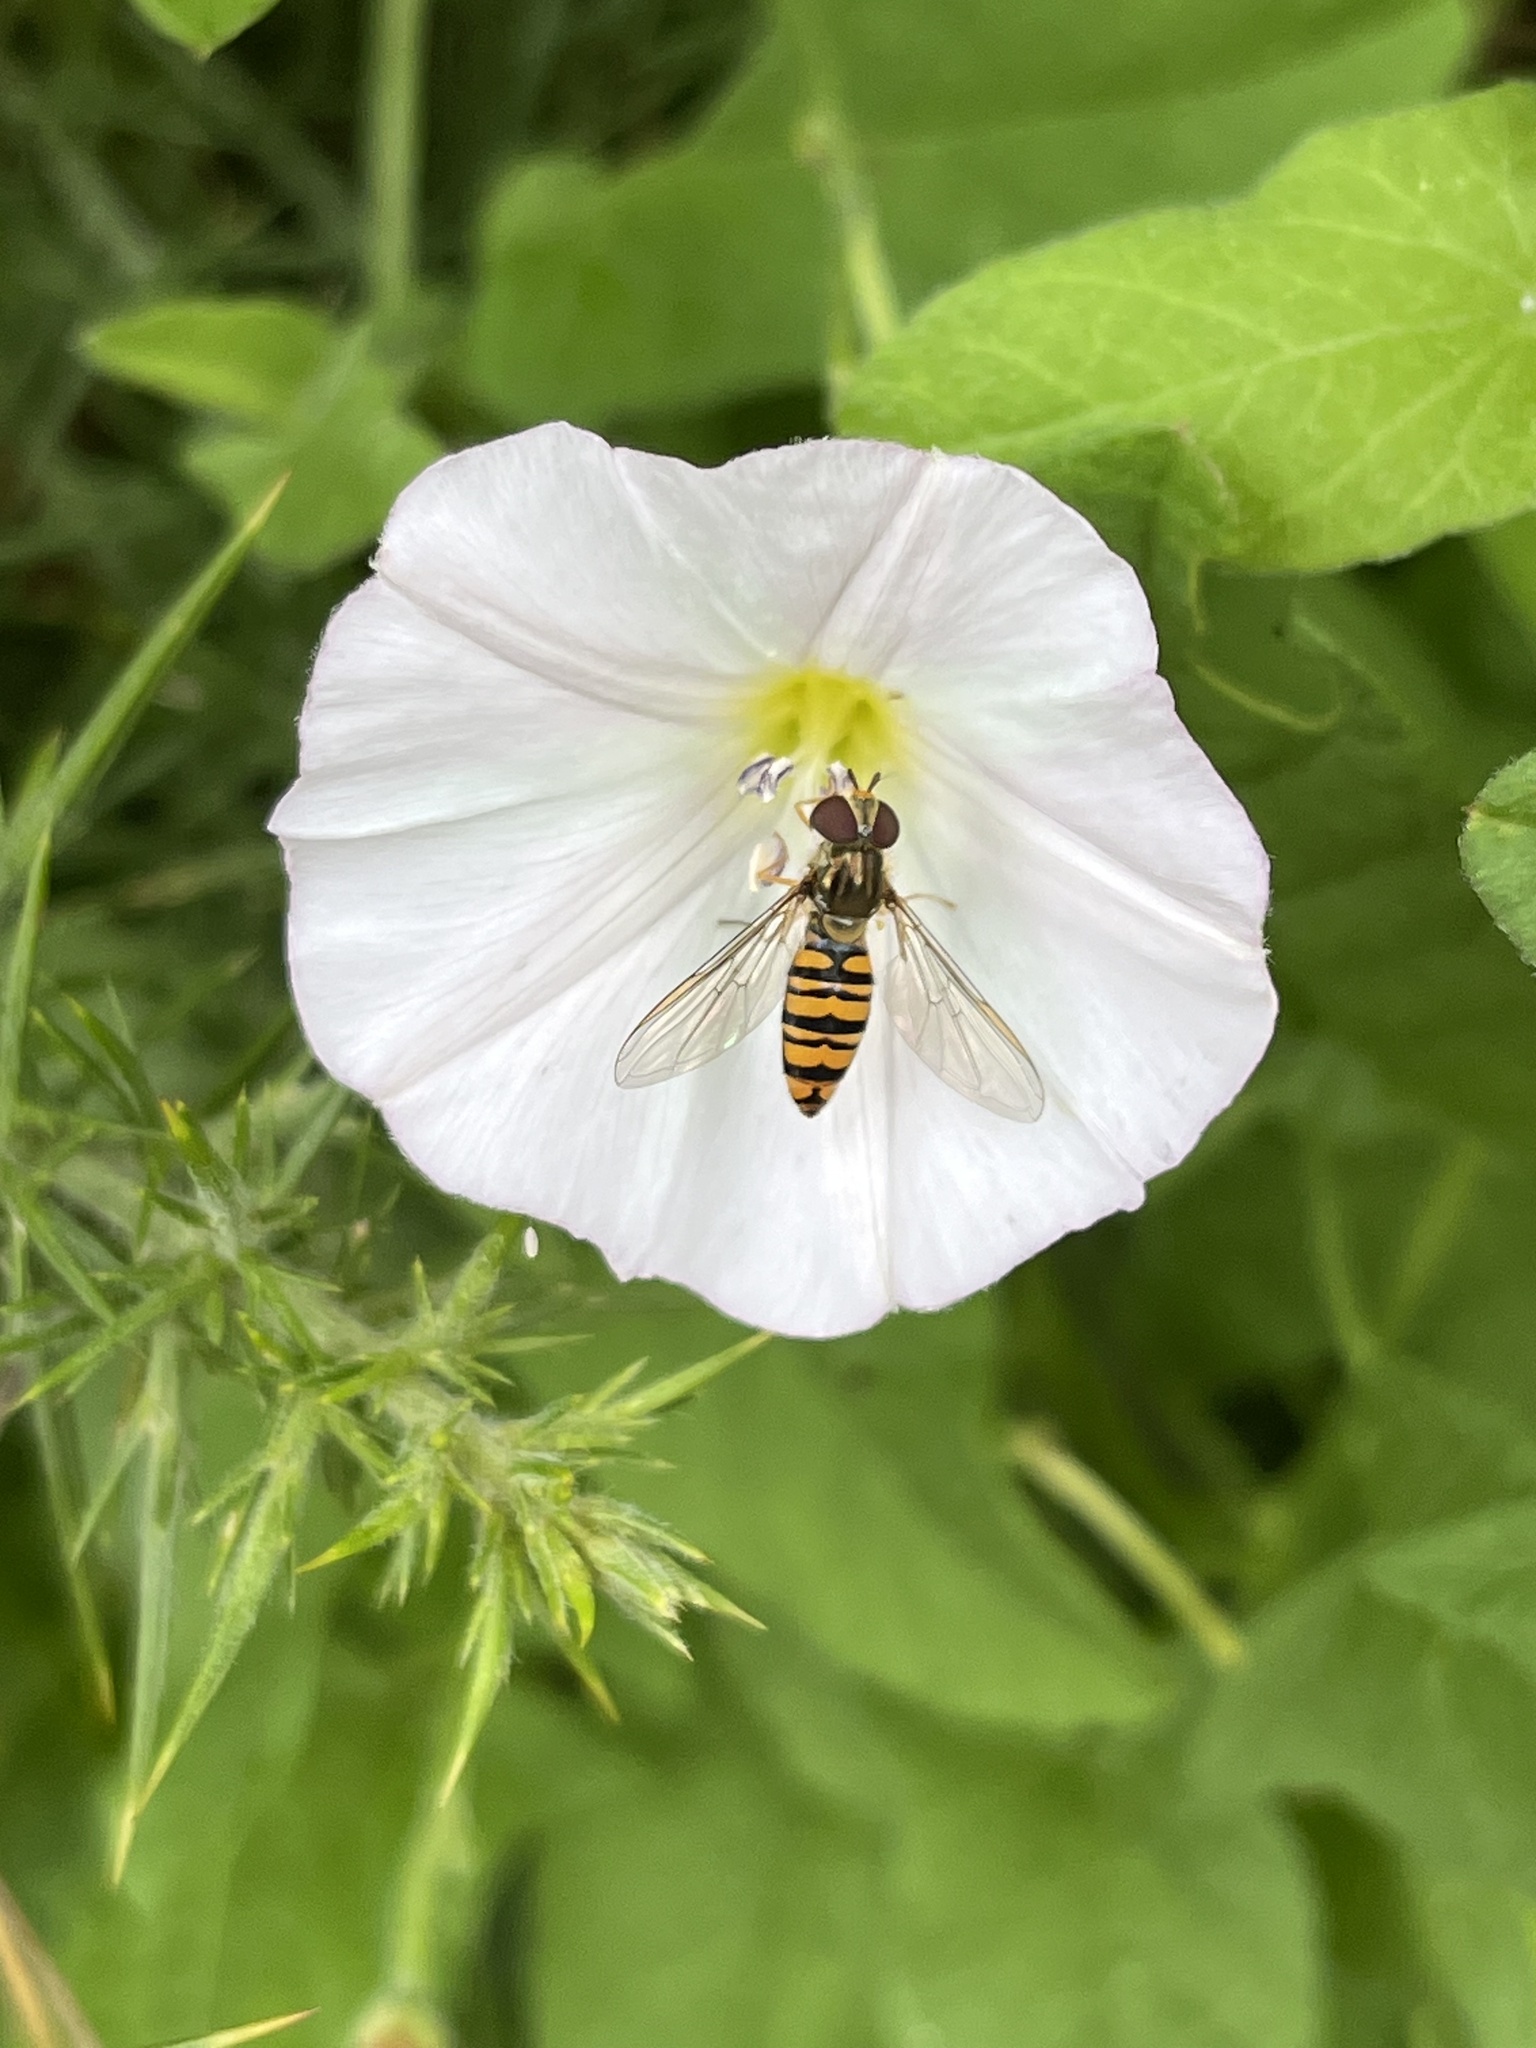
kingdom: Animalia
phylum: Arthropoda
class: Insecta
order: Diptera
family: Syrphidae
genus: Episyrphus
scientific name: Episyrphus balteatus
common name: Marmalade hoverfly
